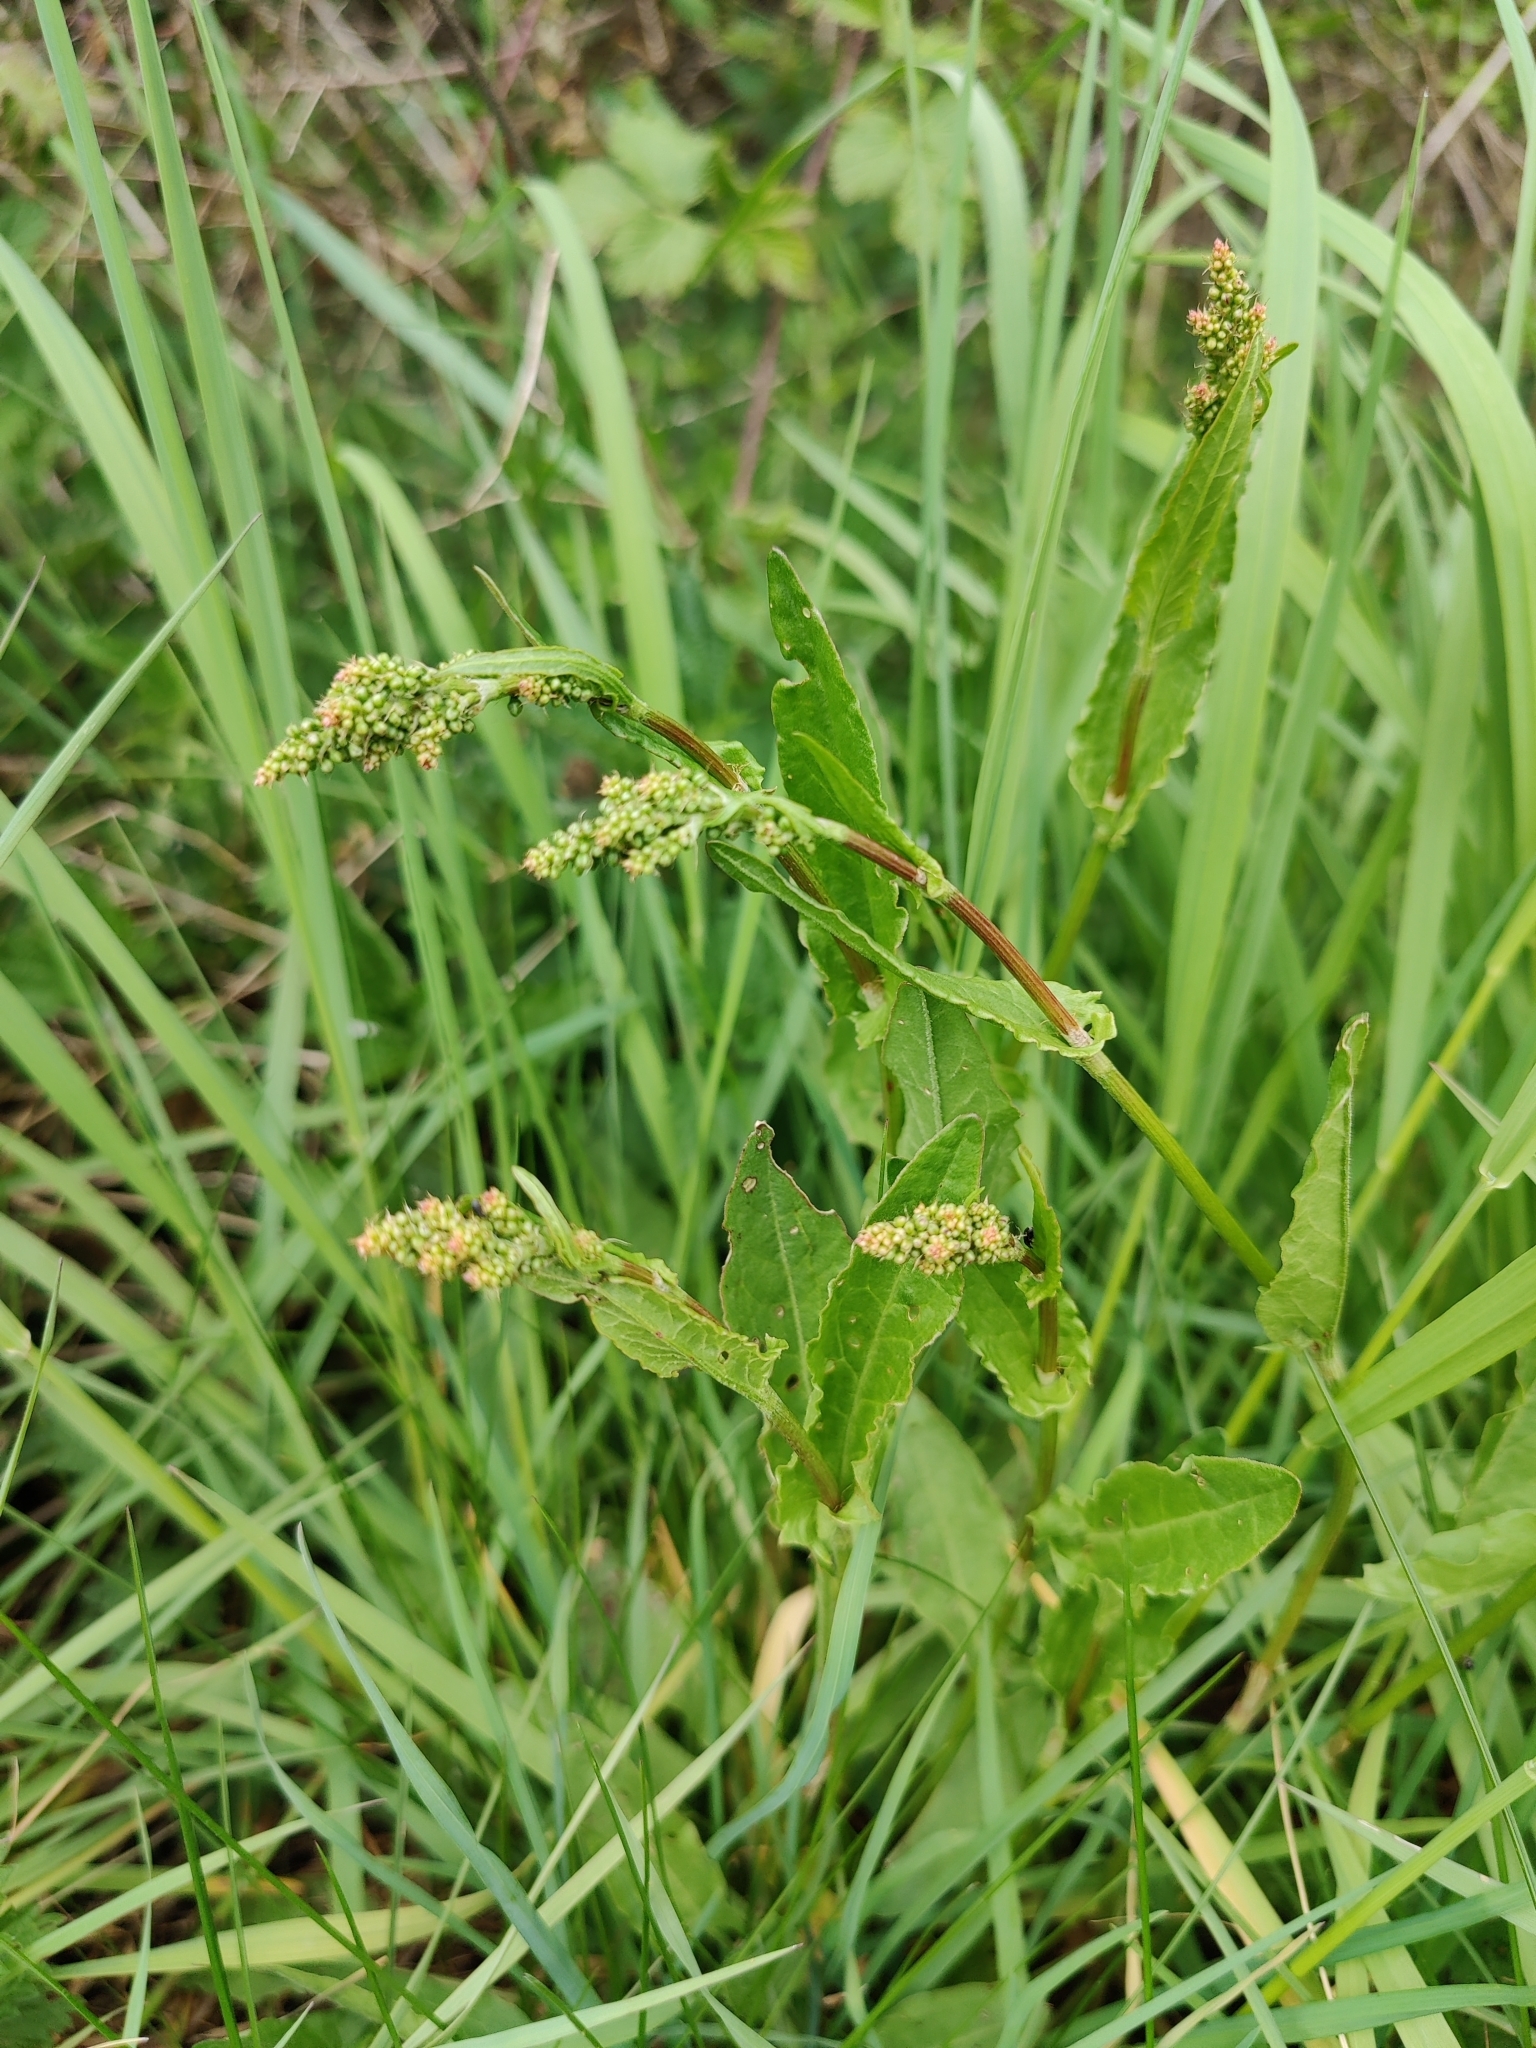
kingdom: Plantae
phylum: Tracheophyta
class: Magnoliopsida
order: Caryophyllales
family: Polygonaceae
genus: Rumex
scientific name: Rumex acetosa
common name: Garden sorrel
